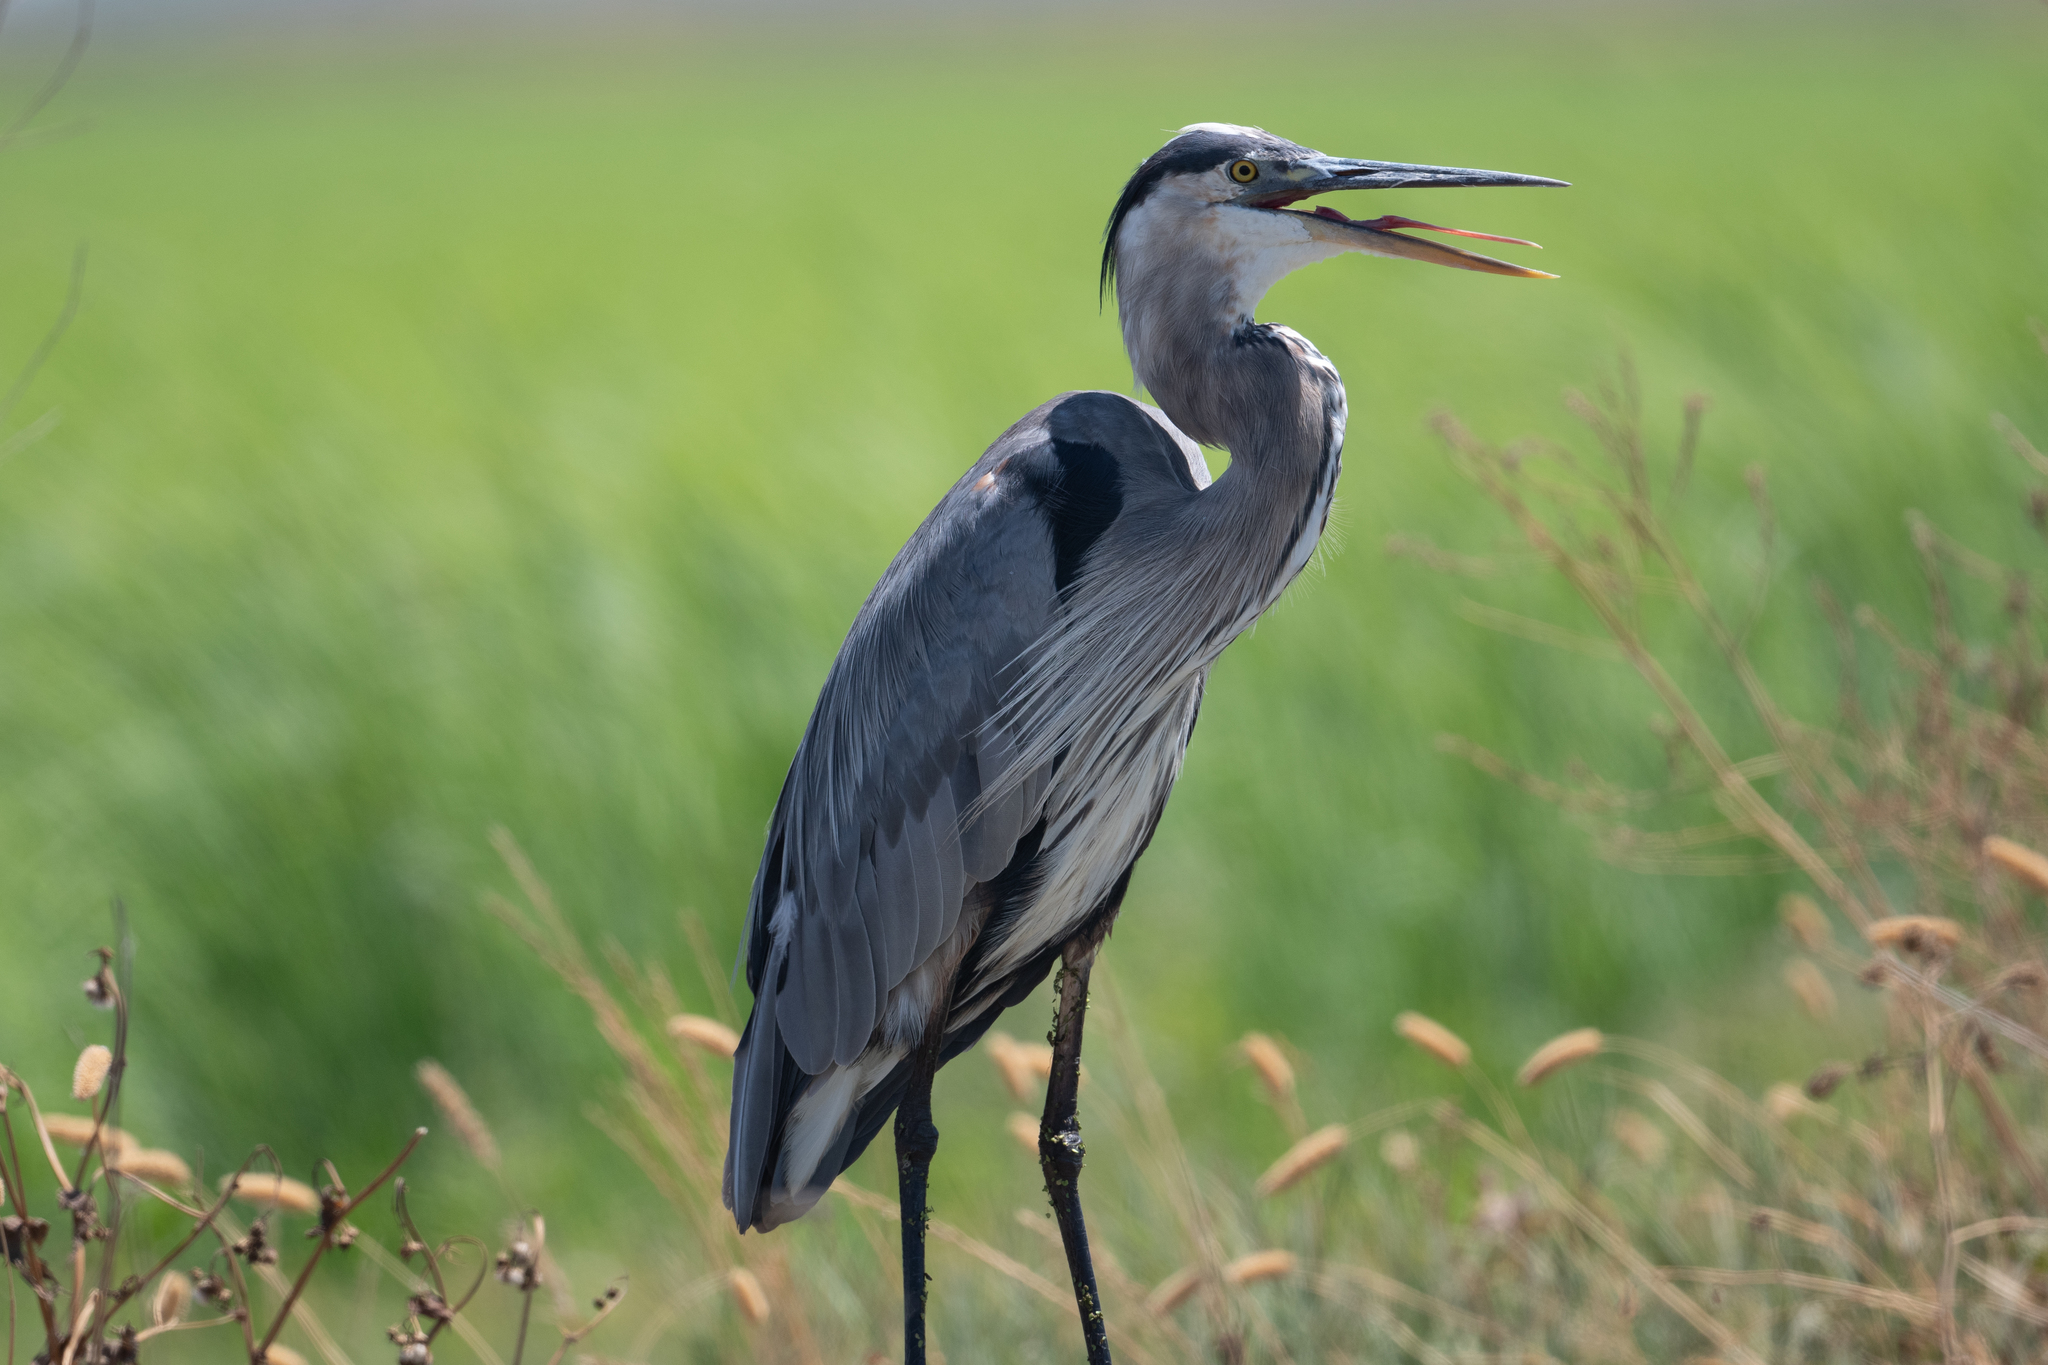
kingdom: Animalia
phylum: Chordata
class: Aves
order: Pelecaniformes
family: Ardeidae
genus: Ardea
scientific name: Ardea herodias
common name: Great blue heron
